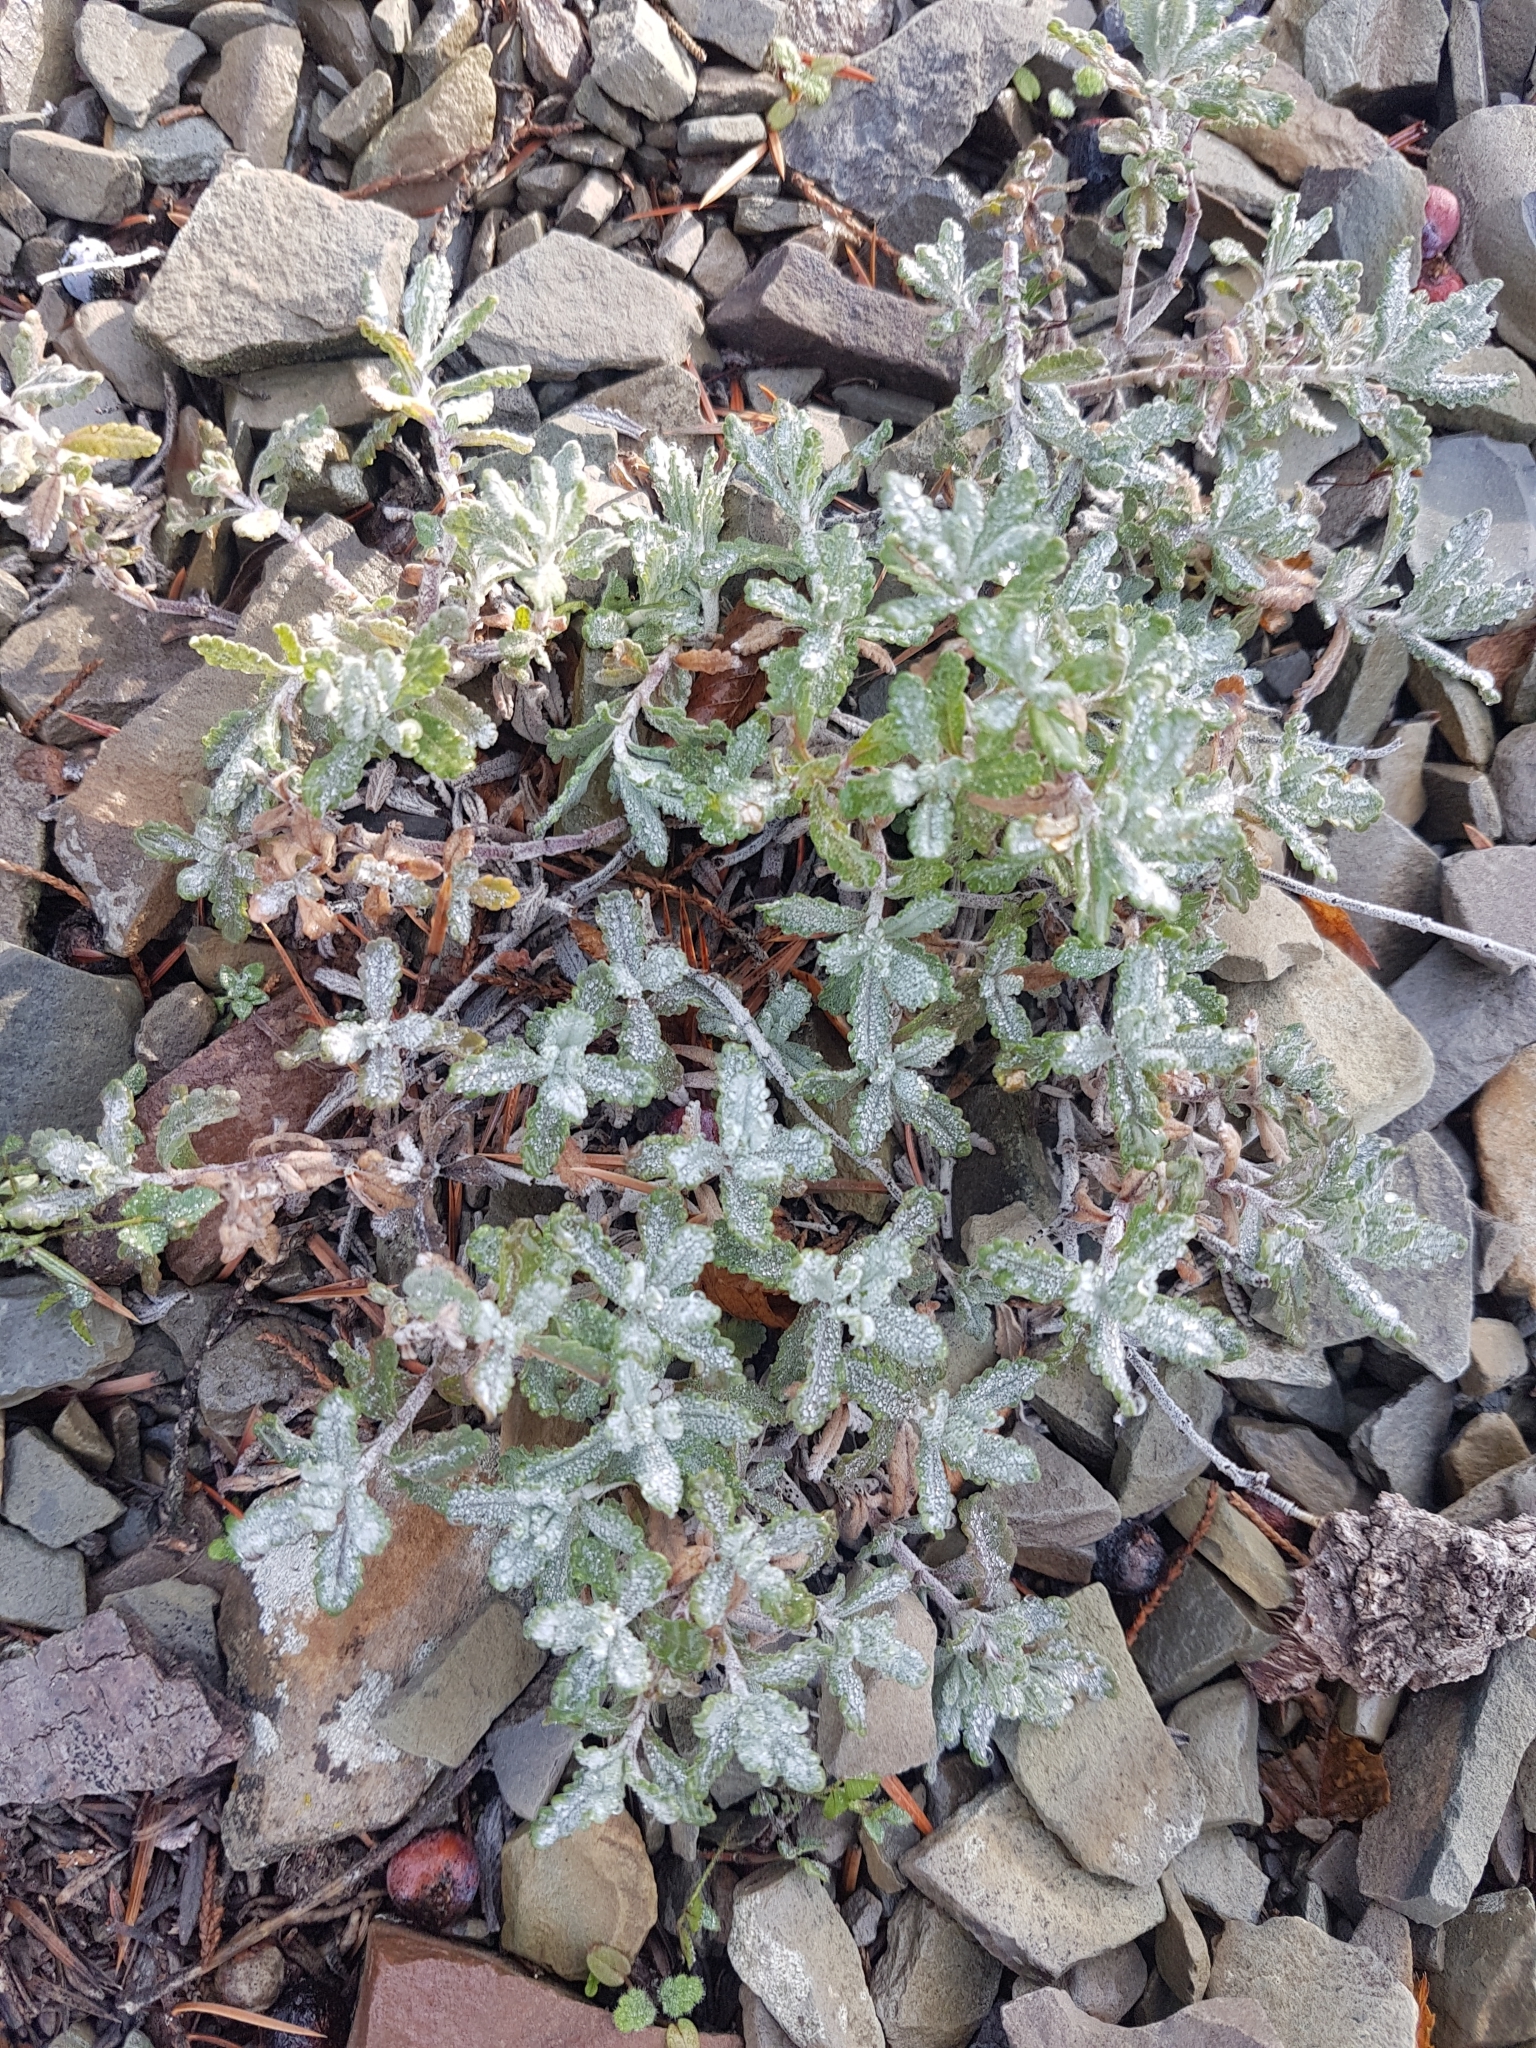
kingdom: Plantae
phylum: Tracheophyta
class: Magnoliopsida
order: Lamiales
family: Lamiaceae
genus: Teucrium
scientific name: Teucrium polium
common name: Poley
